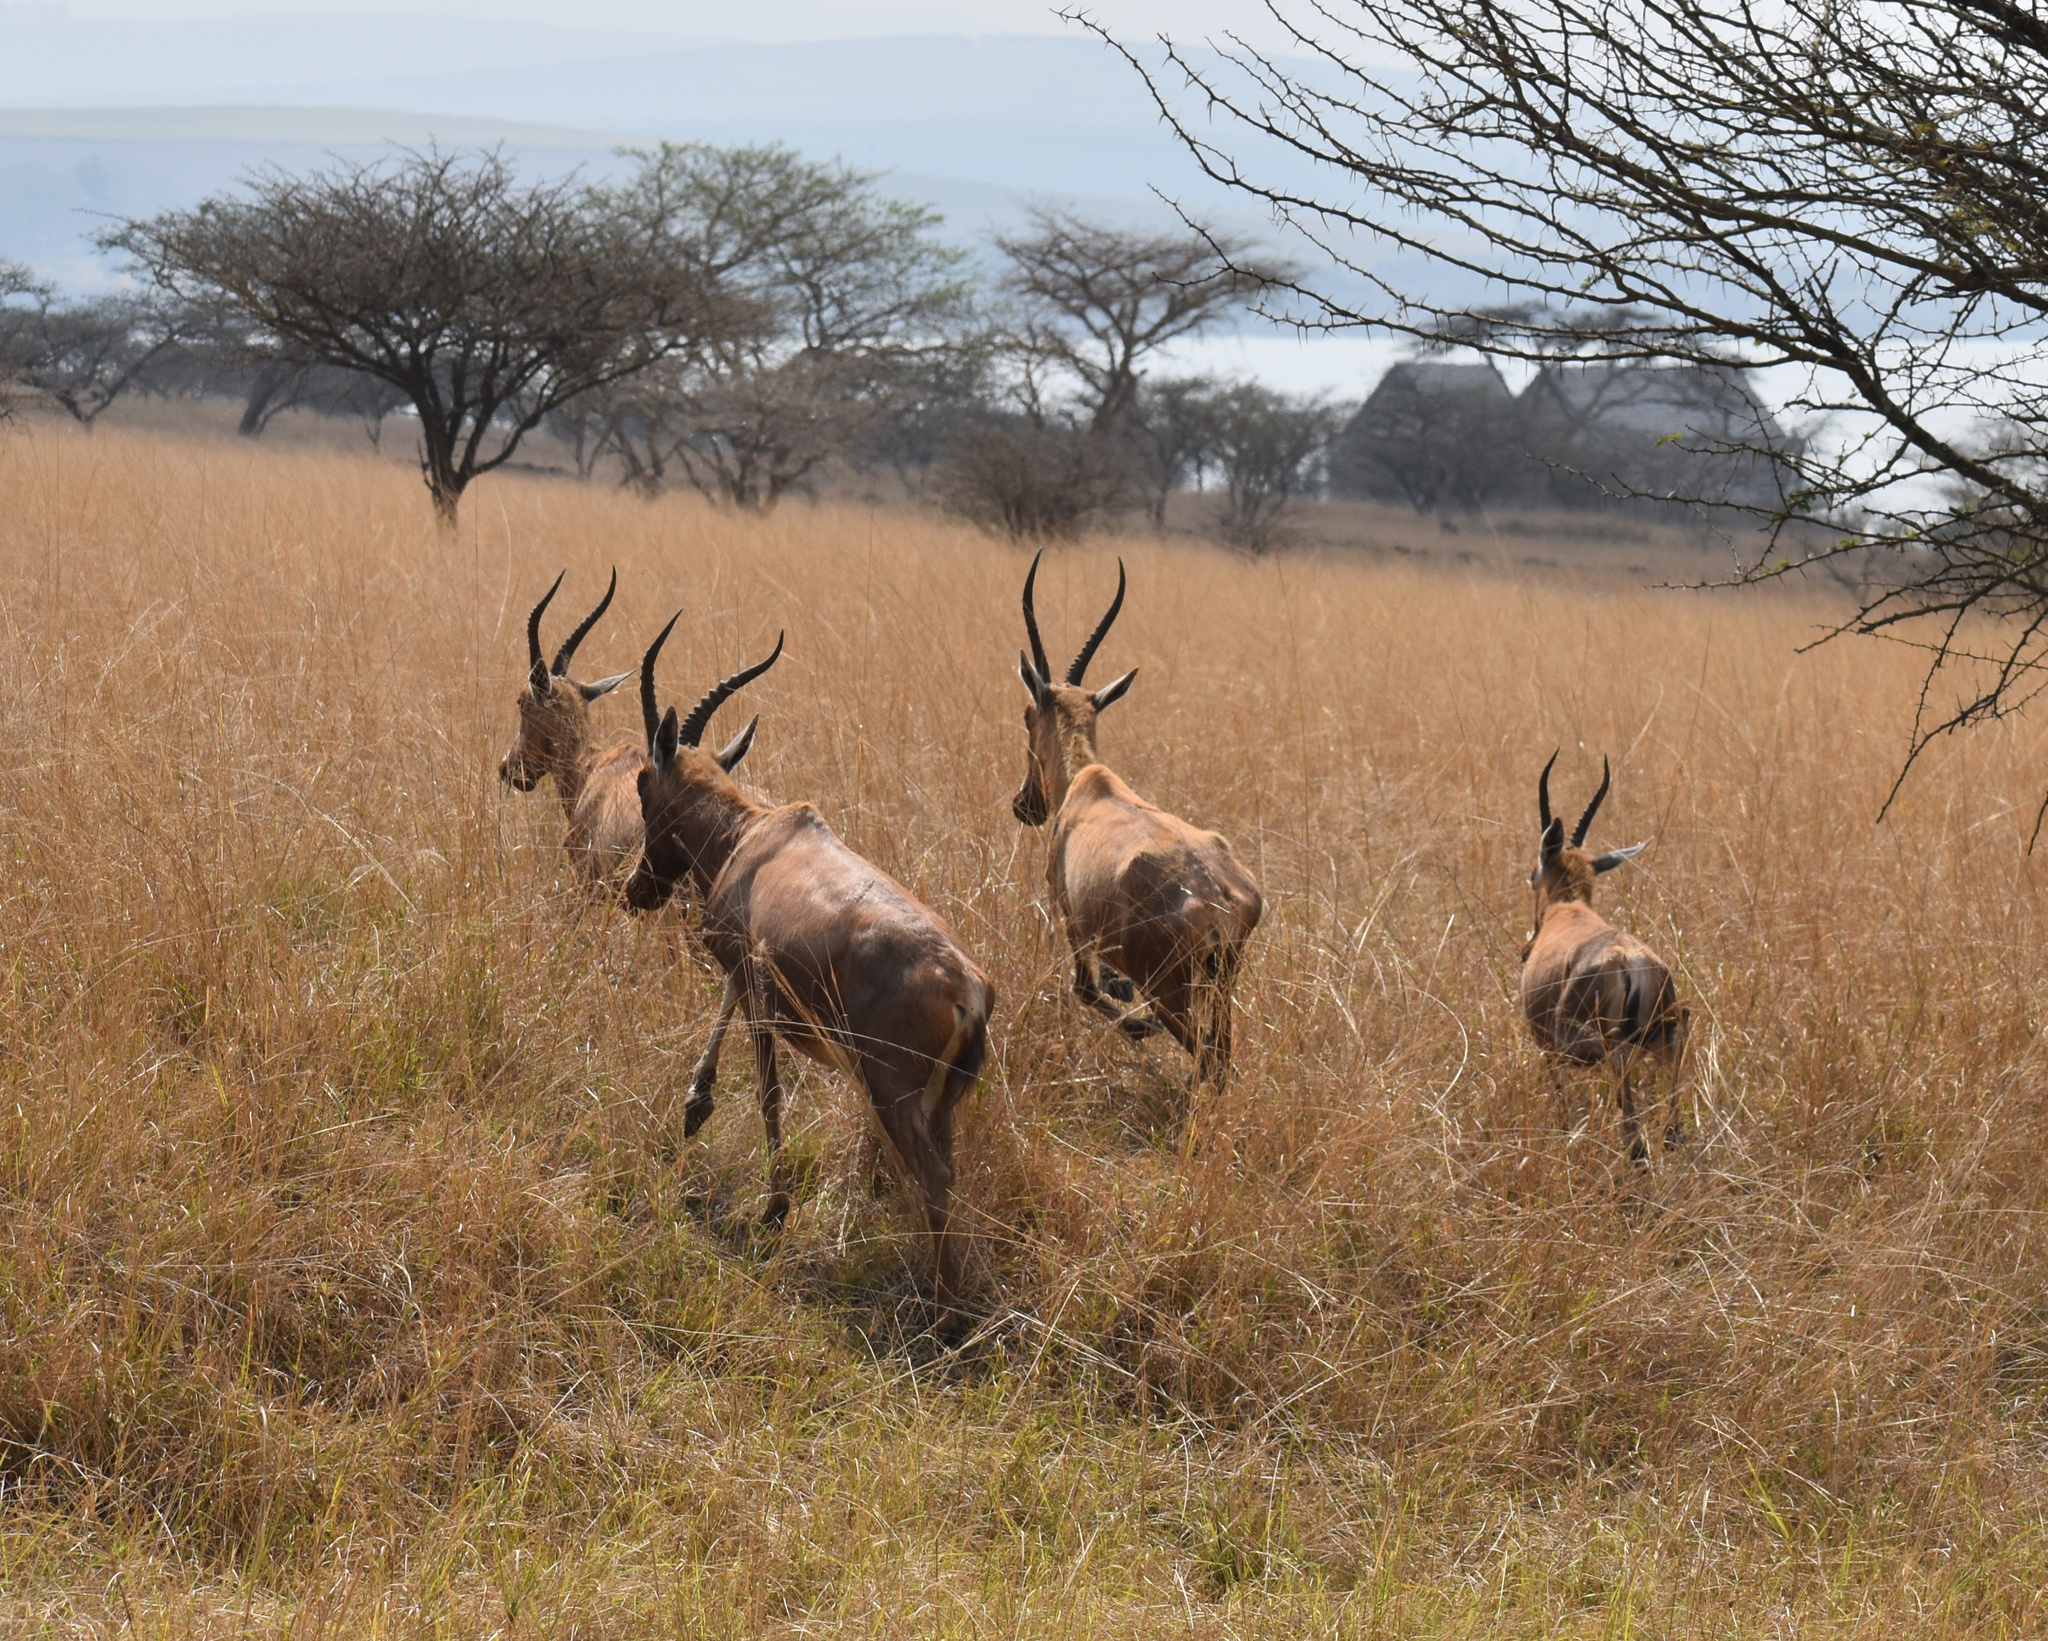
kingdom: Animalia
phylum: Chordata
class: Mammalia
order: Artiodactyla
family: Bovidae
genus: Damaliscus
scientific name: Damaliscus pygargus
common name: Bontebok
